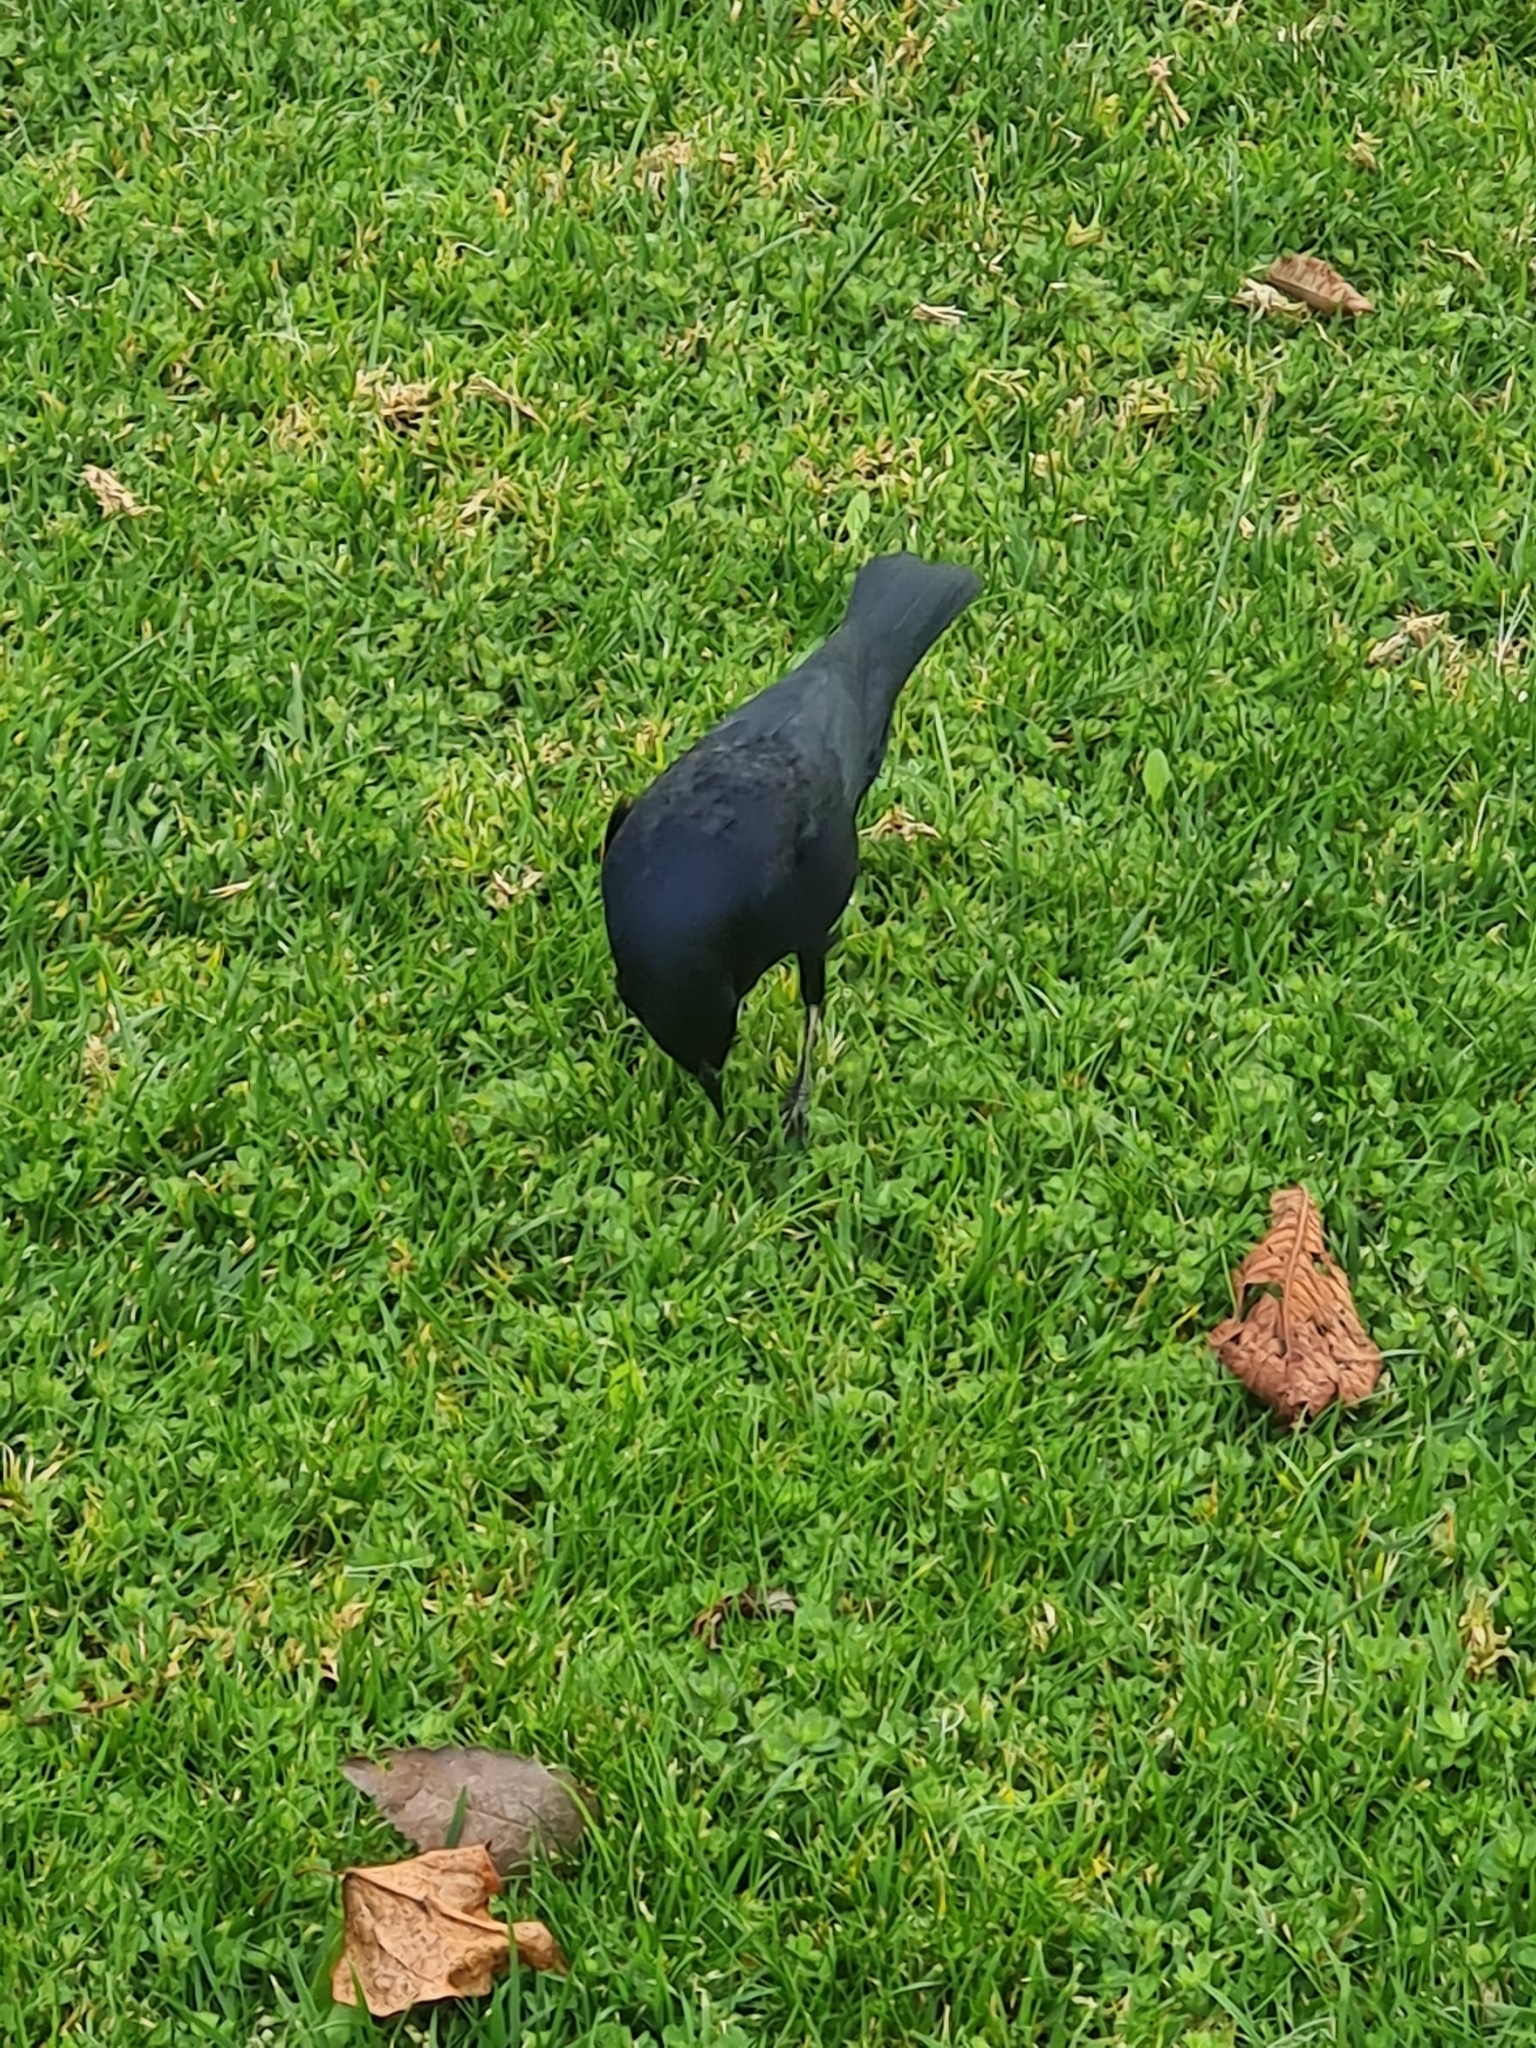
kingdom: Animalia
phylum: Chordata
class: Aves
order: Passeriformes
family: Icteridae
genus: Molothrus
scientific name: Molothrus bonariensis
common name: Shiny cowbird
